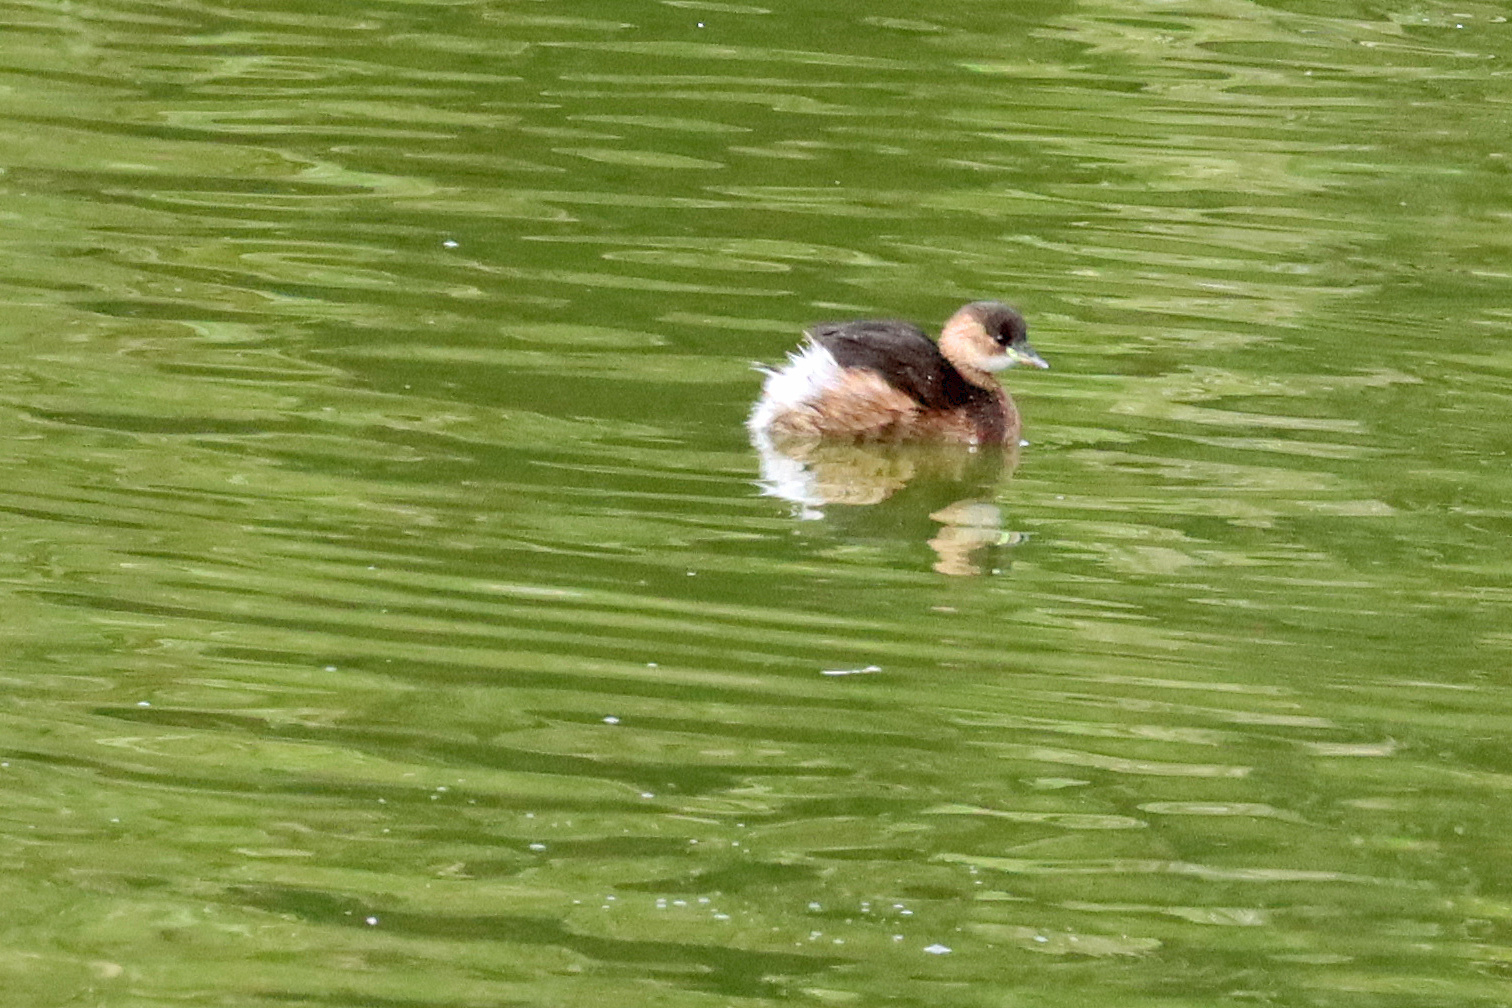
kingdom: Animalia
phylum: Chordata
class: Aves
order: Podicipediformes
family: Podicipedidae
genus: Tachybaptus
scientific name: Tachybaptus ruficollis
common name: Little grebe
